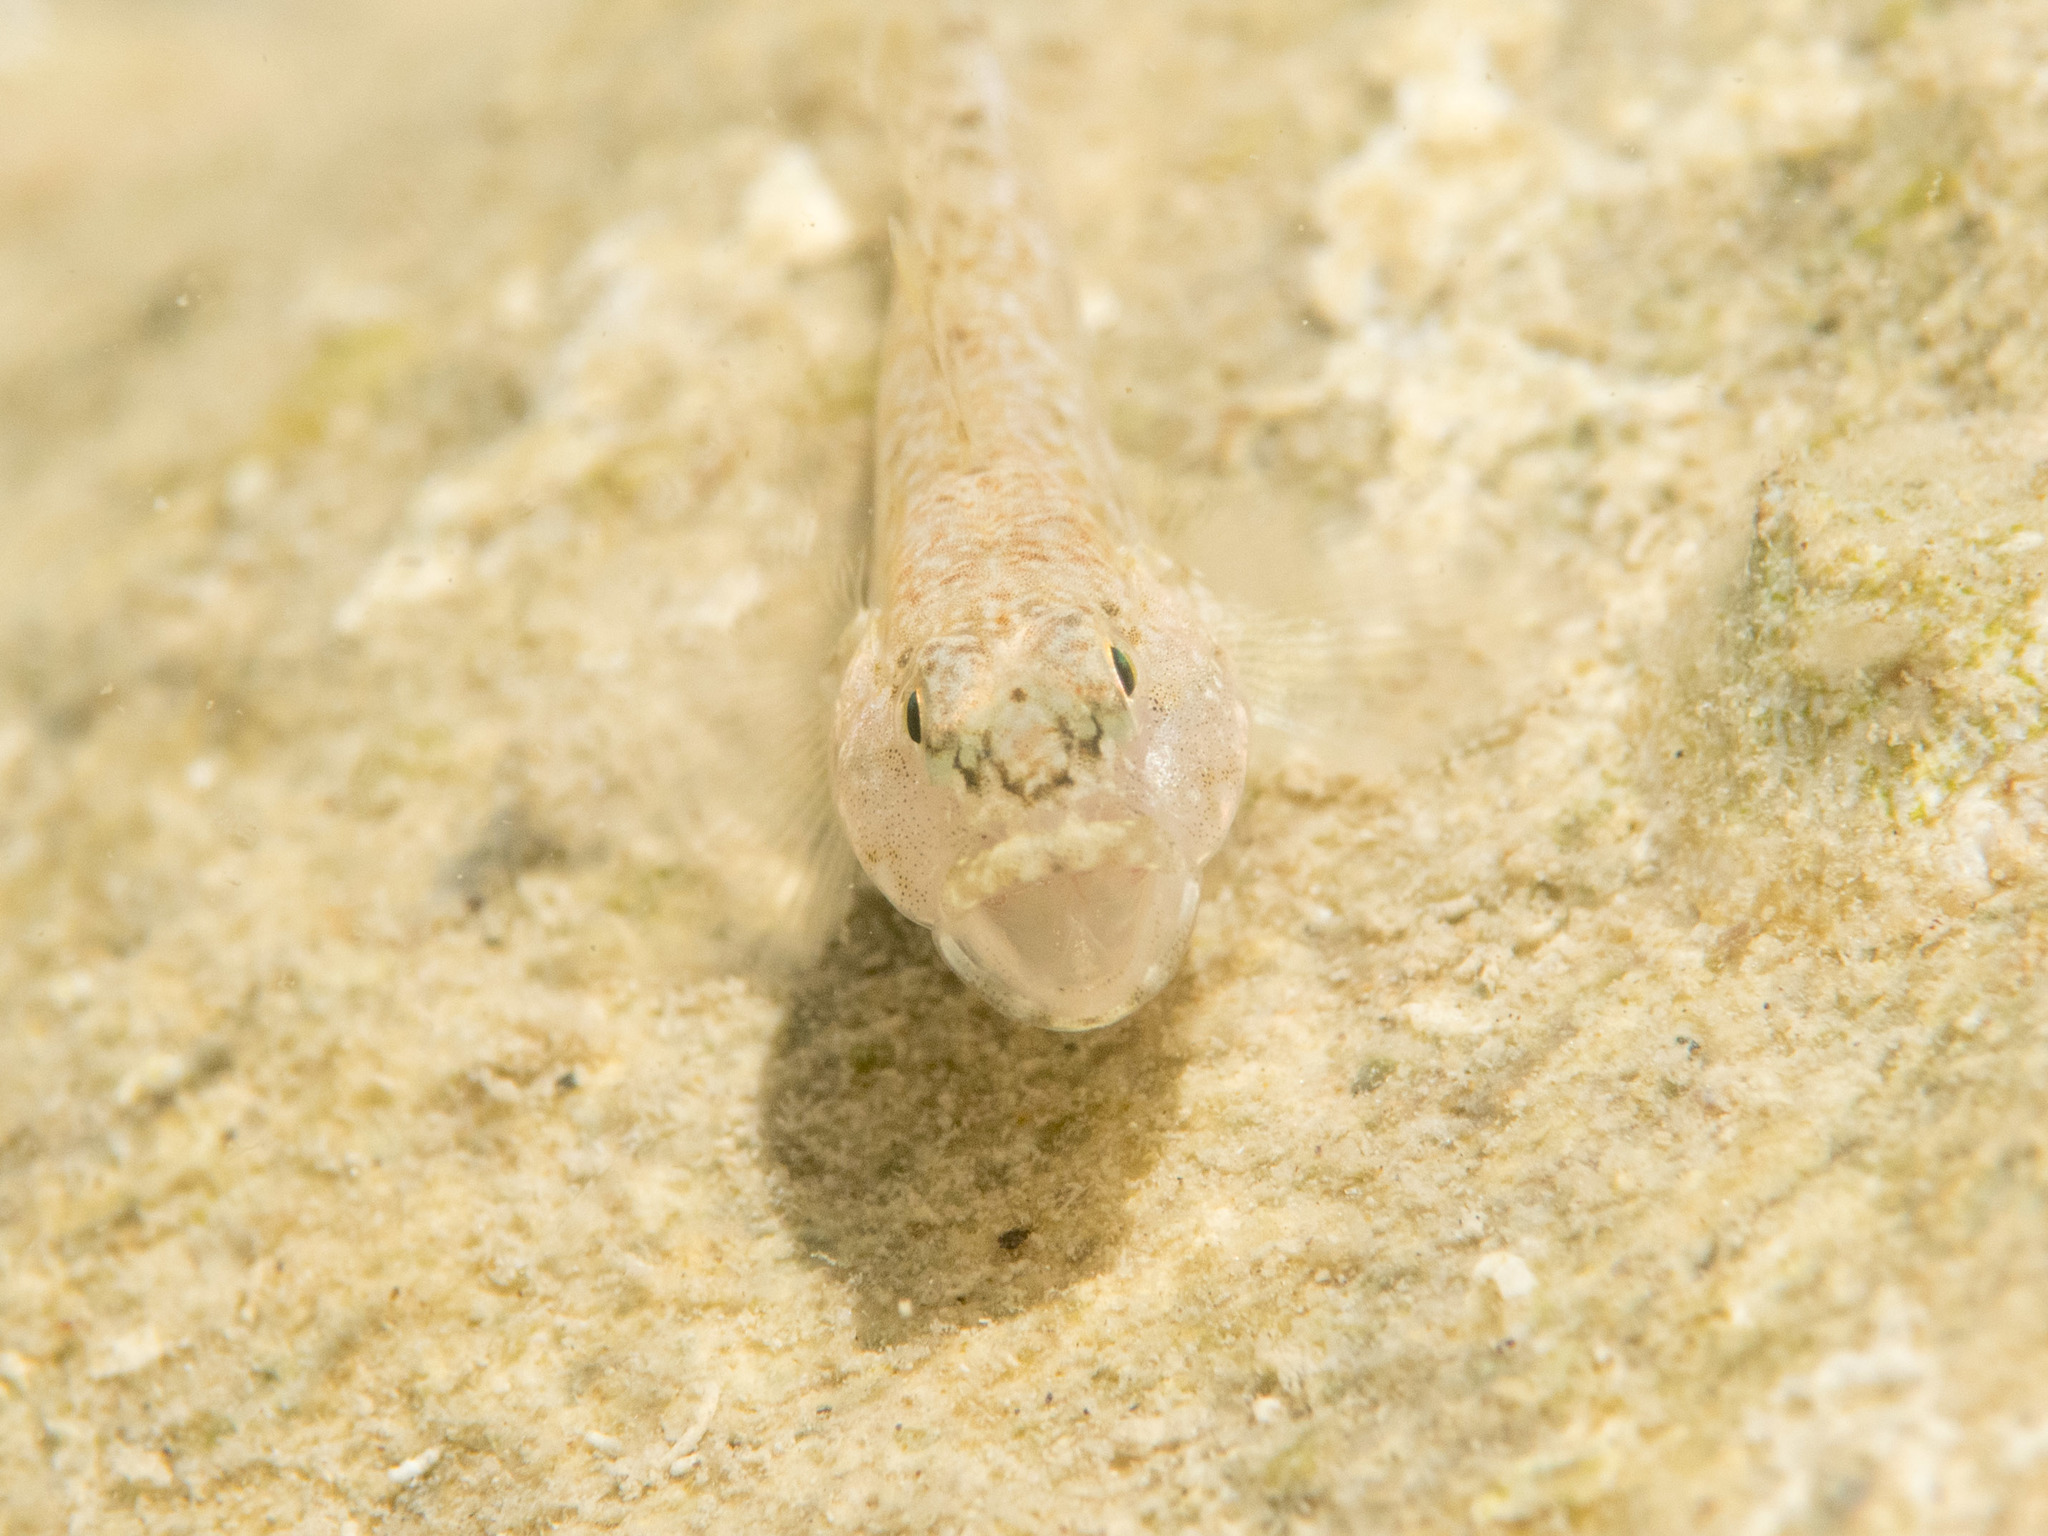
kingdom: Animalia
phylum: Chordata
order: Perciformes
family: Gobiidae
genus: Gobius
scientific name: Gobius cobitis
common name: Giant goby
